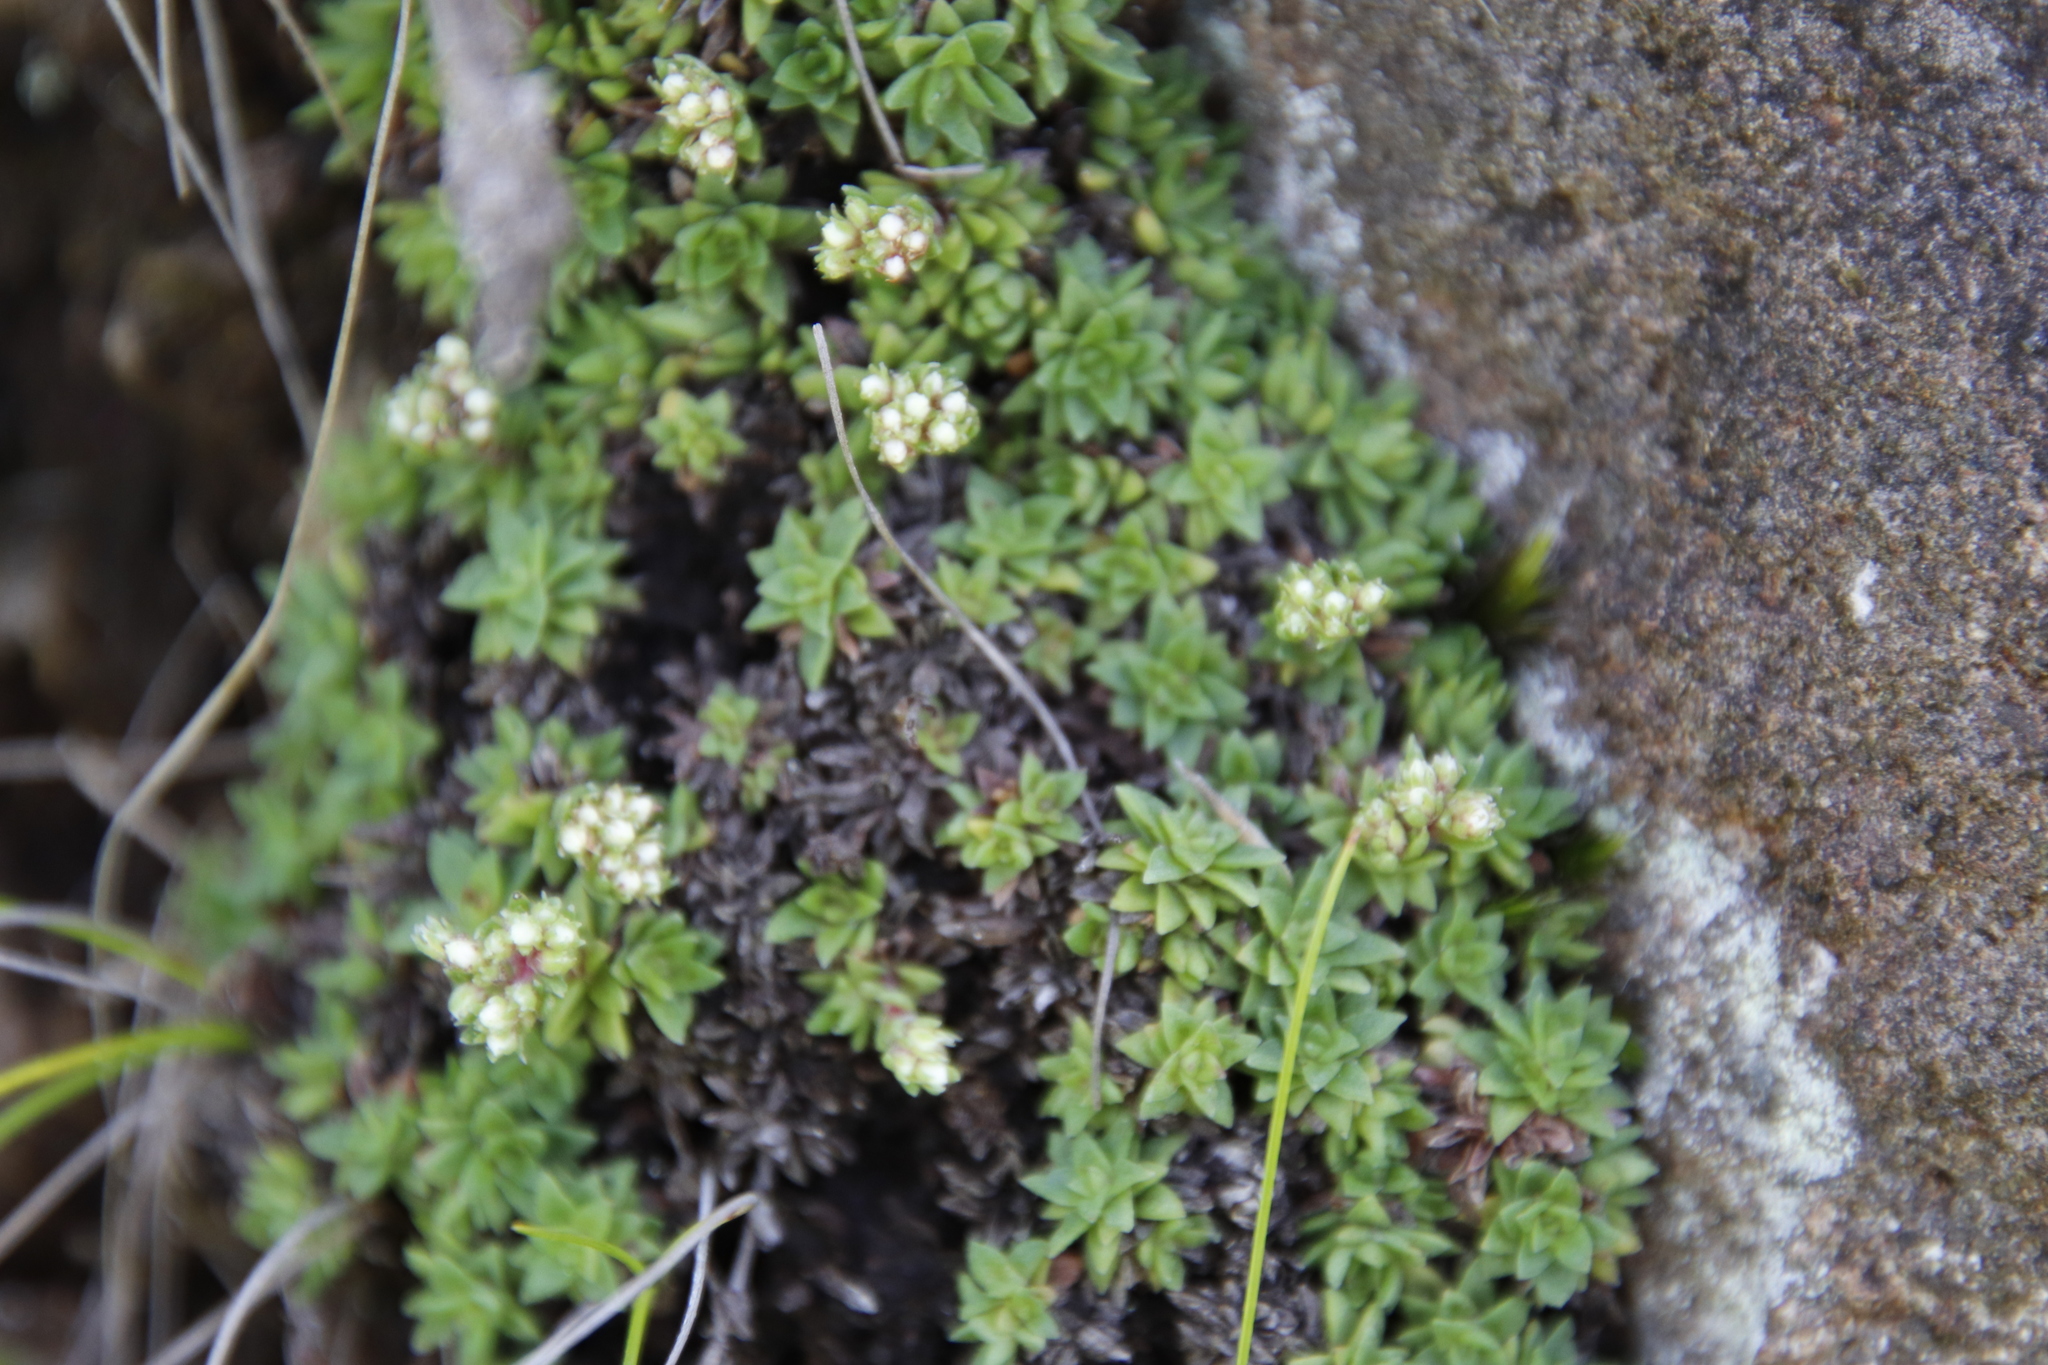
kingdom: Plantae
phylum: Tracheophyta
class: Magnoliopsida
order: Saxifragales
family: Crassulaceae
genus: Crassula
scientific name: Crassula setulosa
